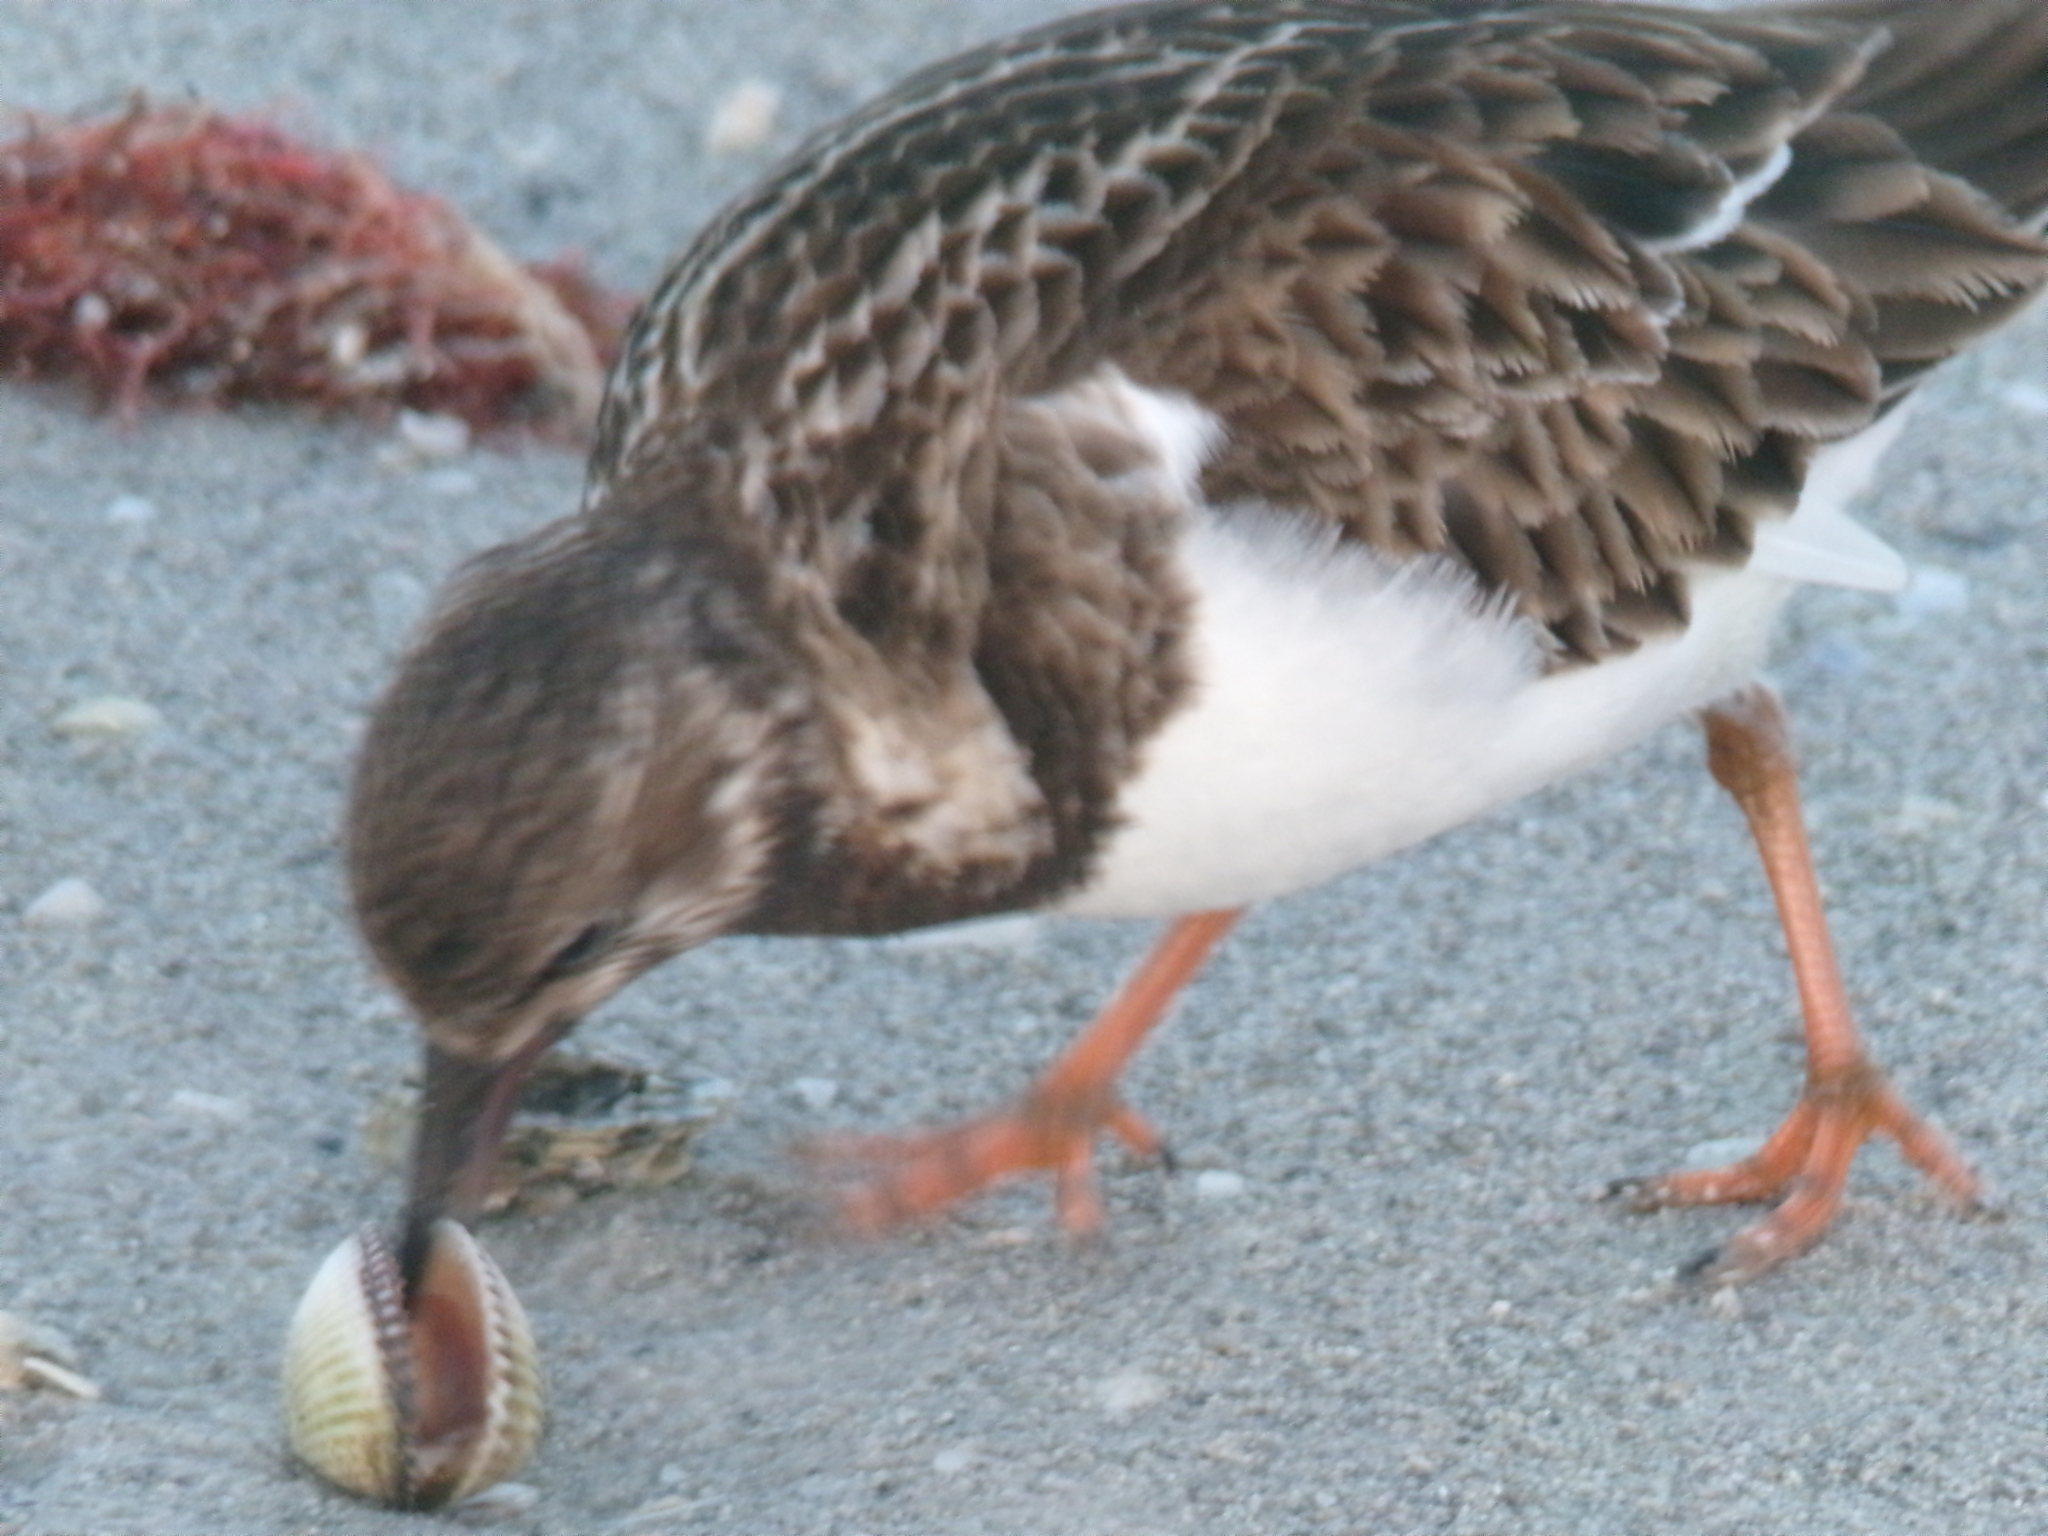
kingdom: Animalia
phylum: Chordata
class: Aves
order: Charadriiformes
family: Scolopacidae
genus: Arenaria
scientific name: Arenaria interpres
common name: Ruddy turnstone
